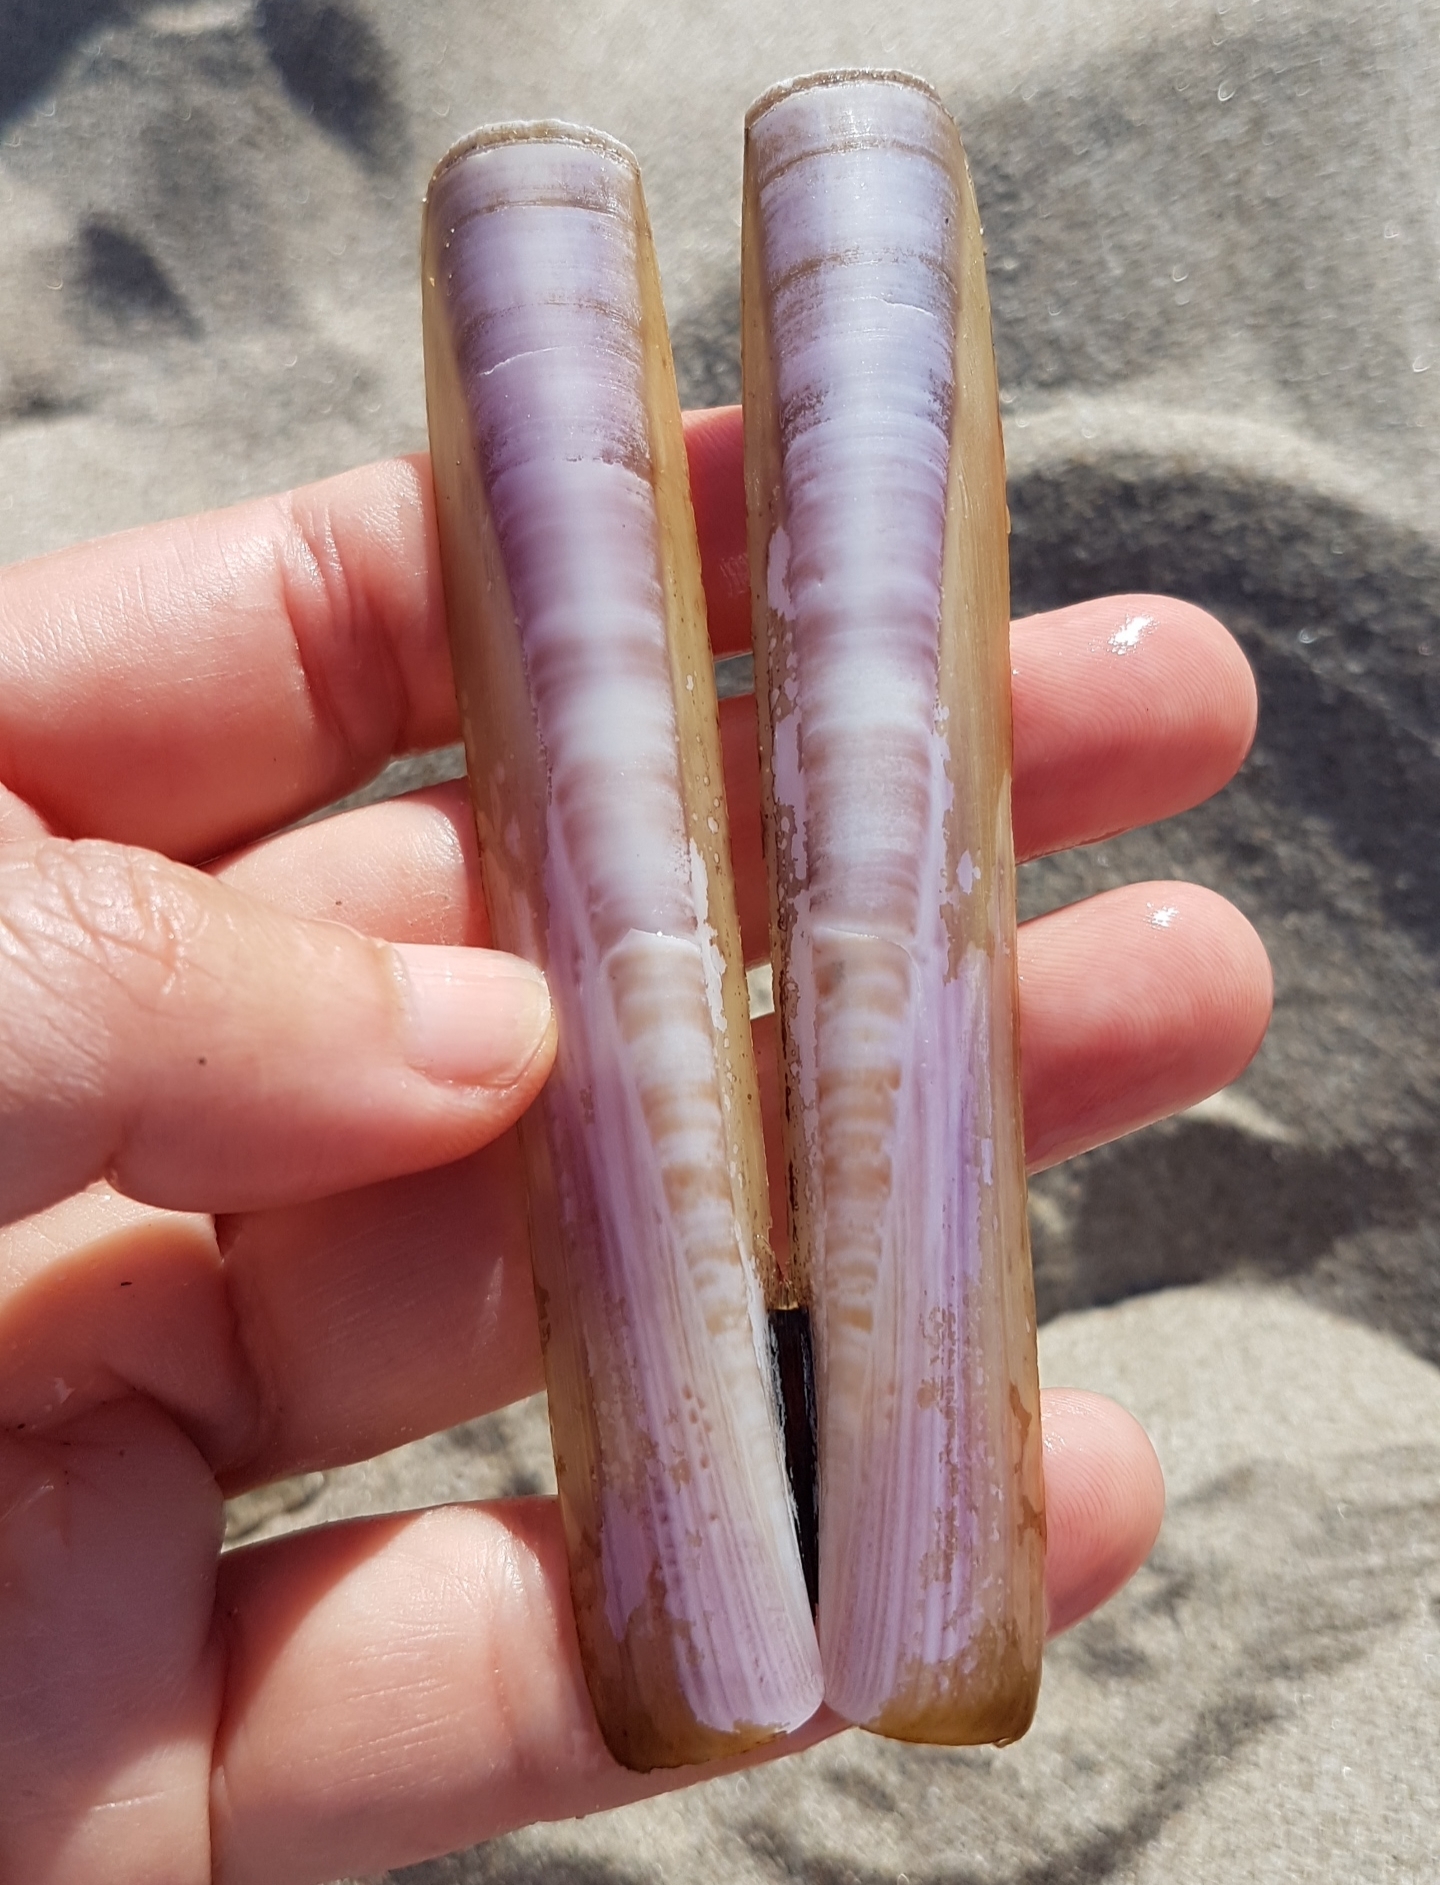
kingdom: Animalia
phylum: Mollusca
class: Bivalvia
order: Adapedonta
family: Pharidae
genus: Ensis
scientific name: Ensis minor
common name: Minor jackknife clam
